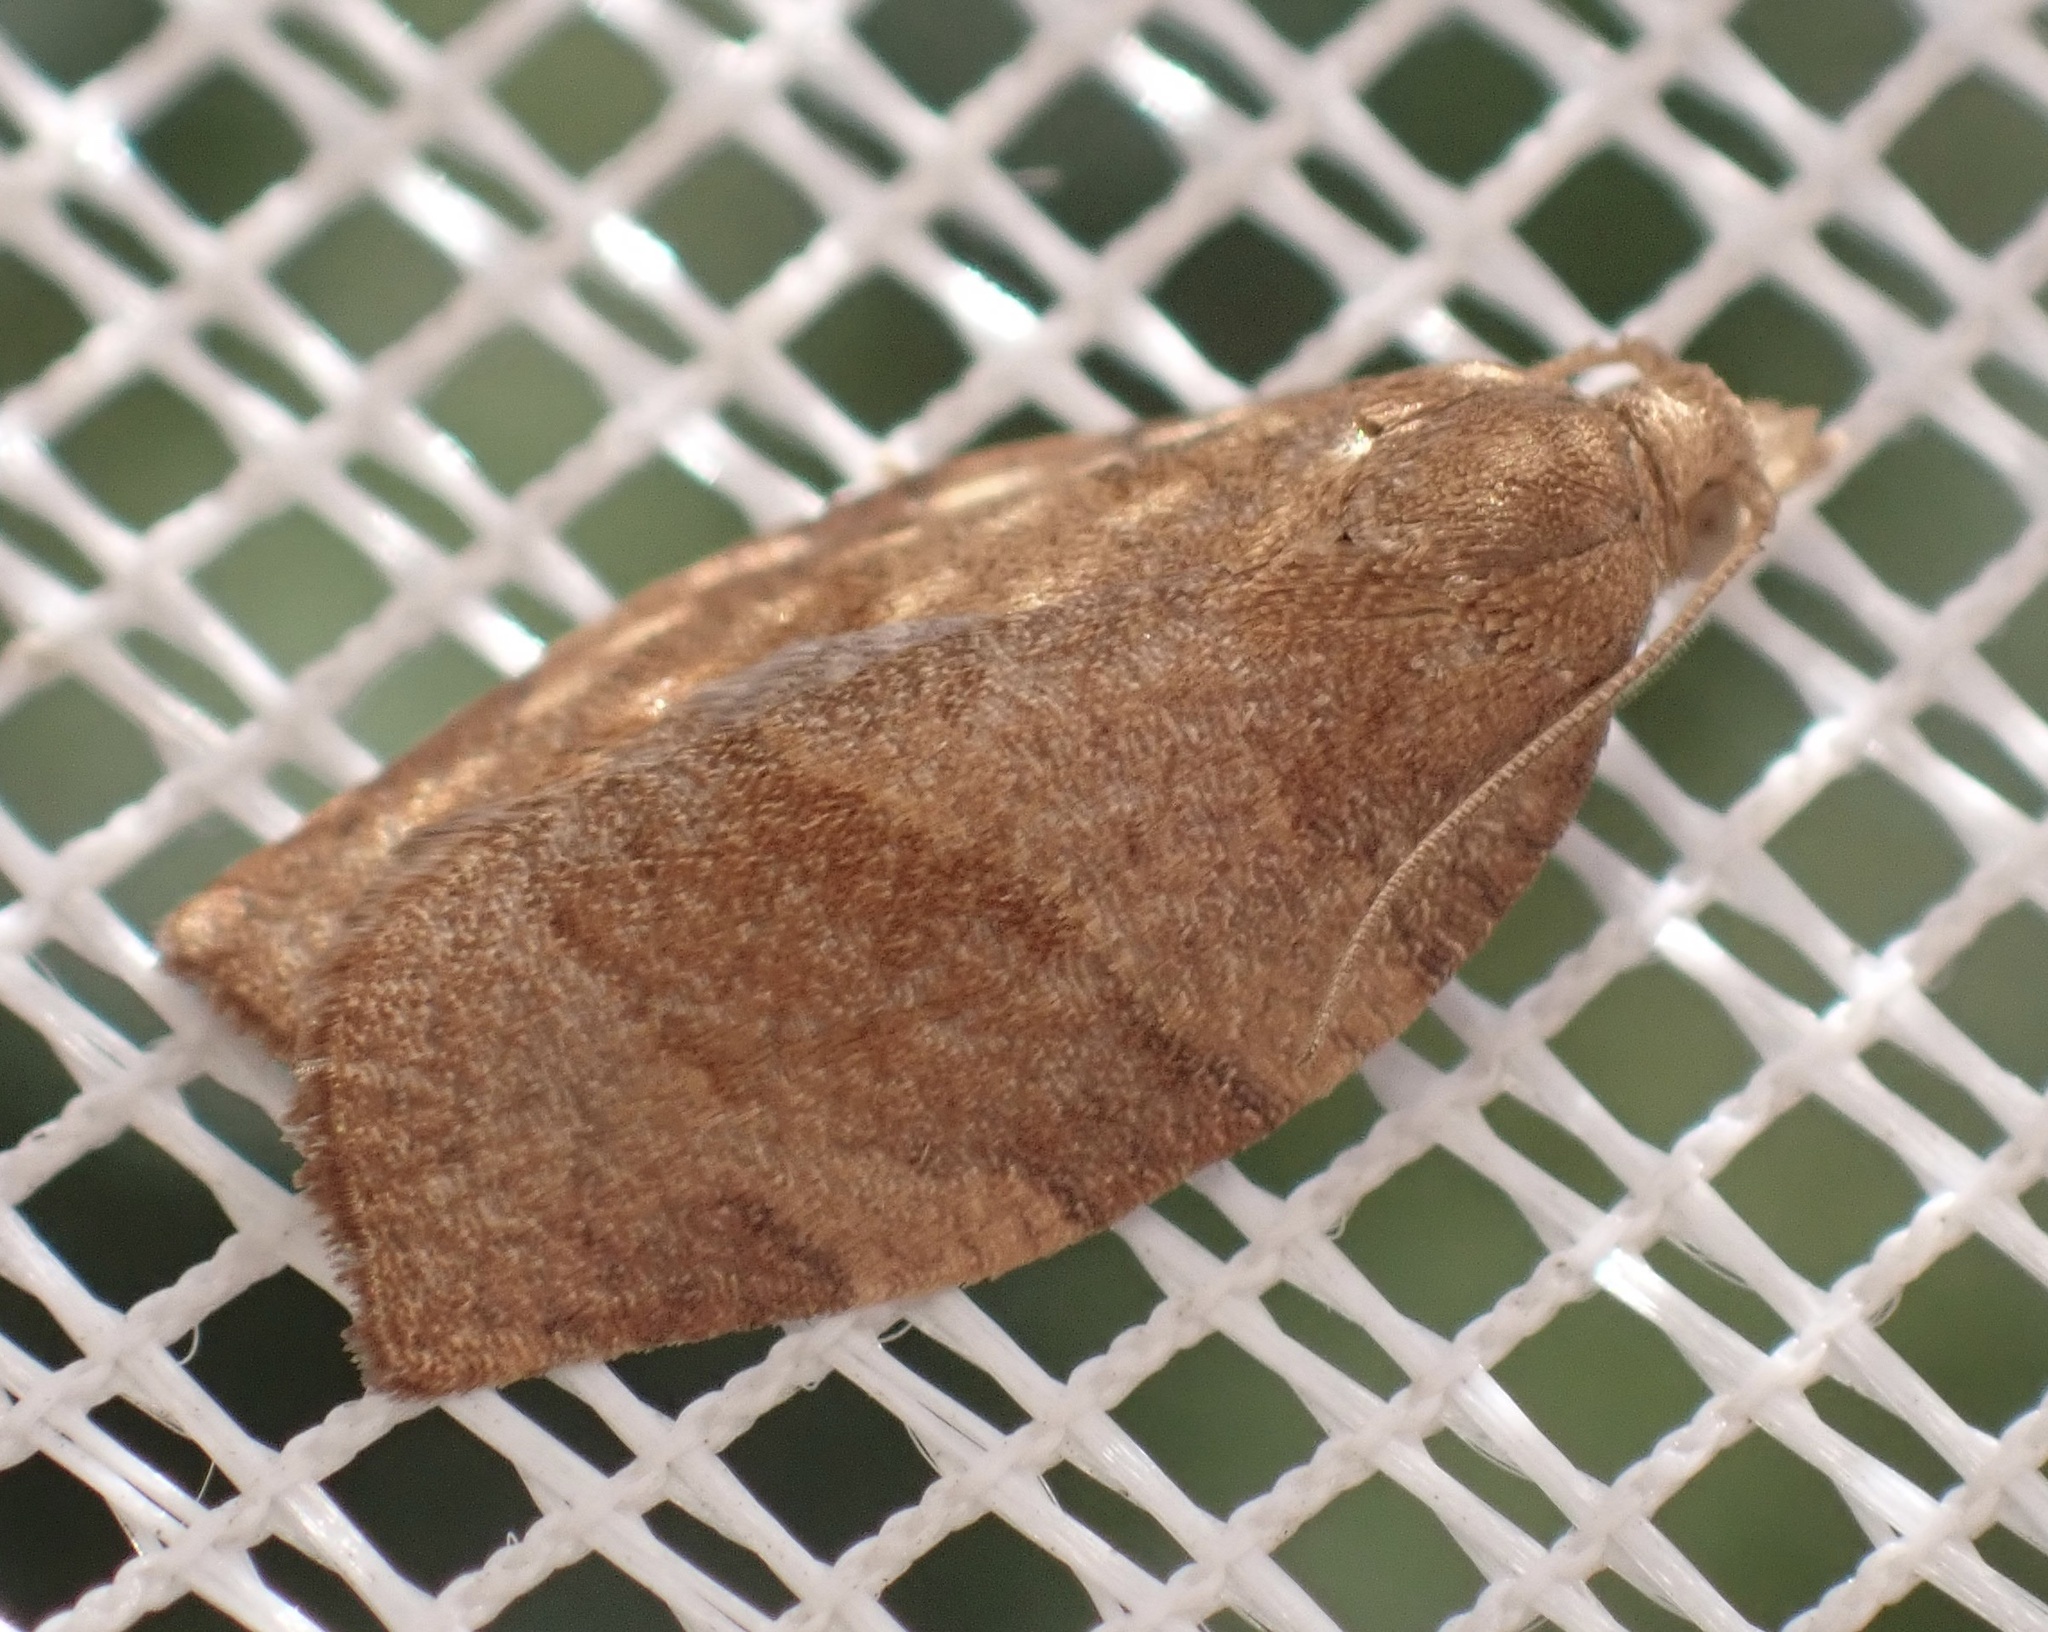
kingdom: Animalia
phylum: Arthropoda
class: Insecta
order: Lepidoptera
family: Tortricidae
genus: Pandemis
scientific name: Pandemis heparana
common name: Dark fruit-tree tortrix
